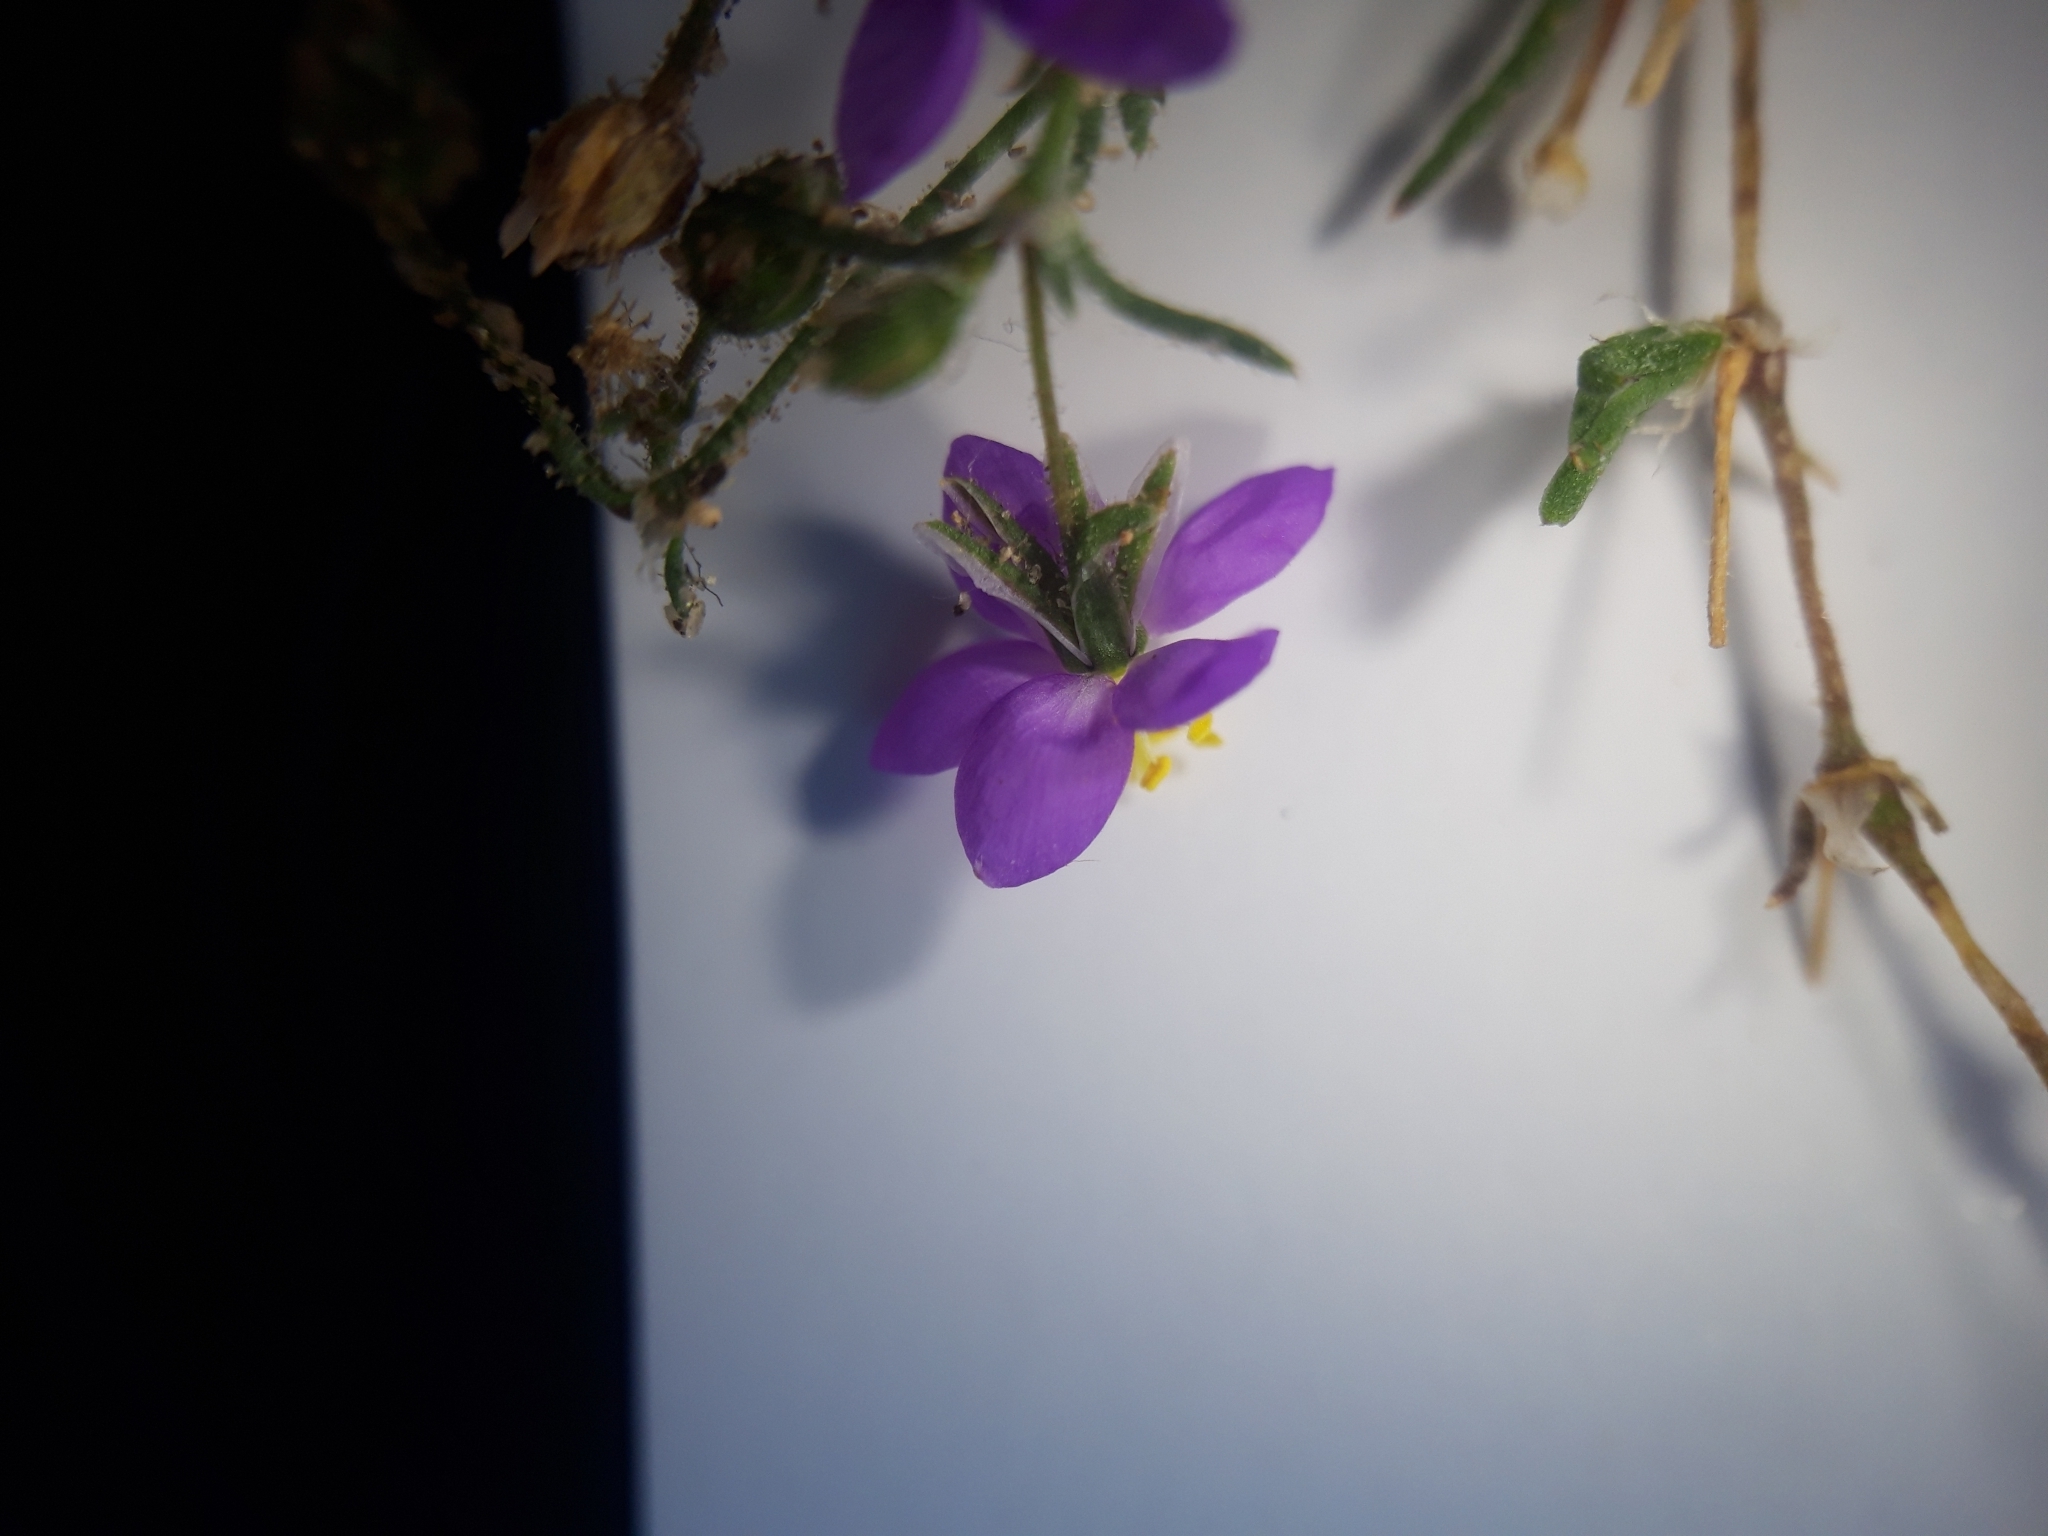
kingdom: Plantae
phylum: Tracheophyta
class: Magnoliopsida
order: Caryophyllales
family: Caryophyllaceae
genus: Spergularia
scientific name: Spergularia purpurea
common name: Purple sandspurry
